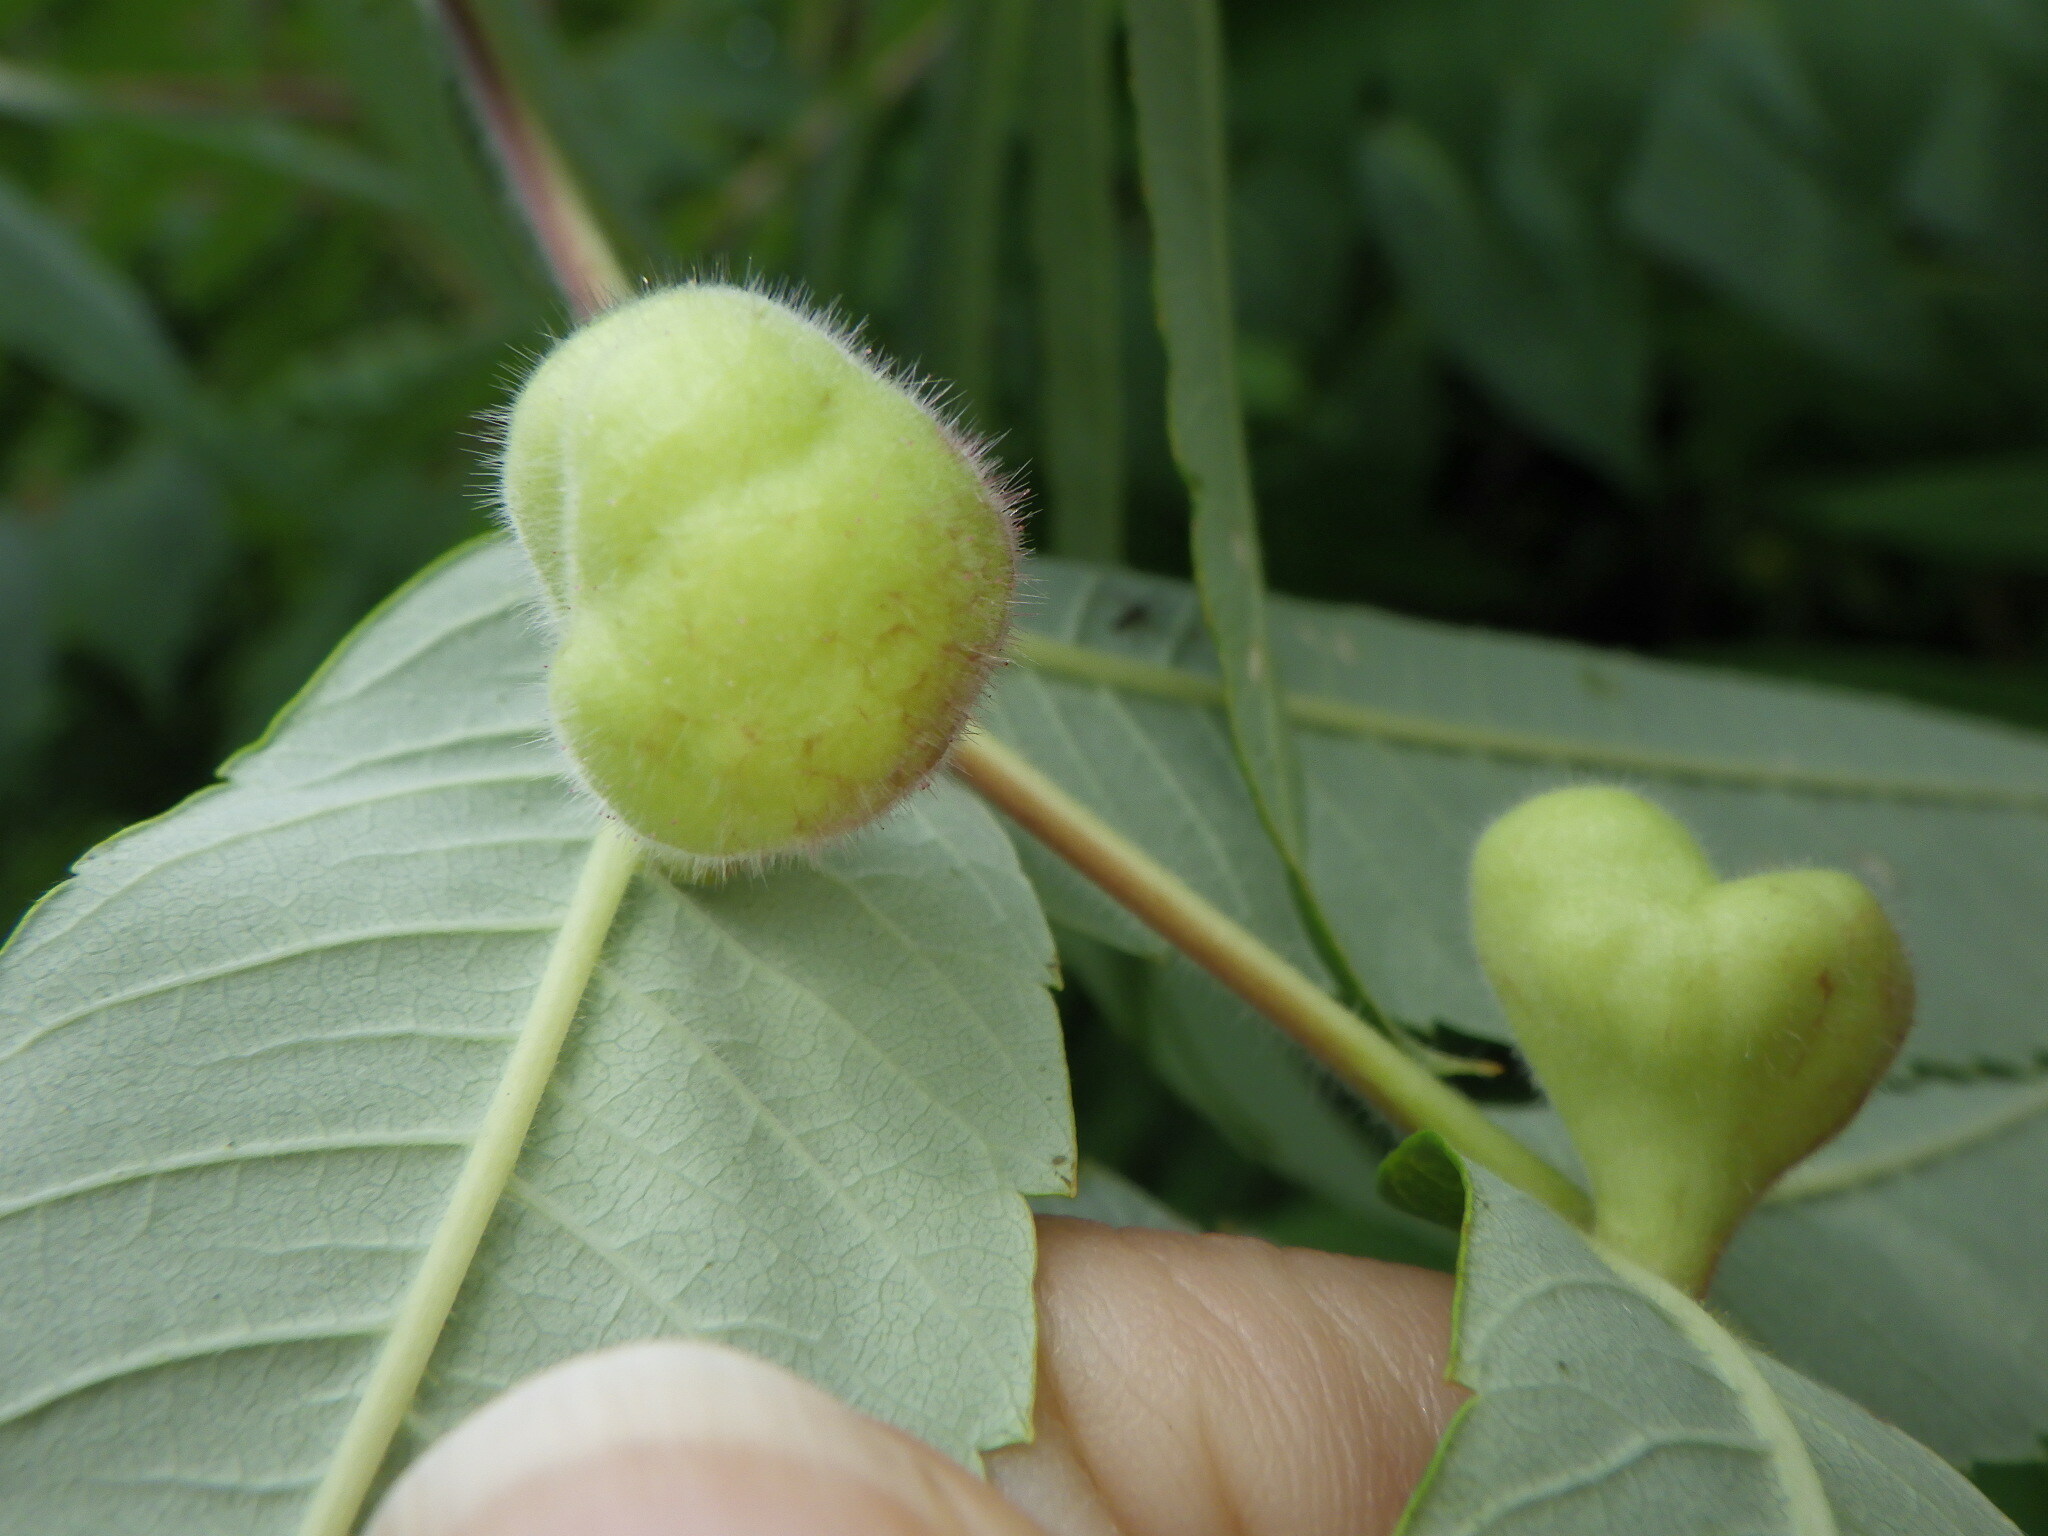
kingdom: Animalia
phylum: Arthropoda
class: Insecta
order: Hemiptera
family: Aphididae
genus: Melaphis
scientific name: Melaphis rhois
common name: Sumac gall aphid
